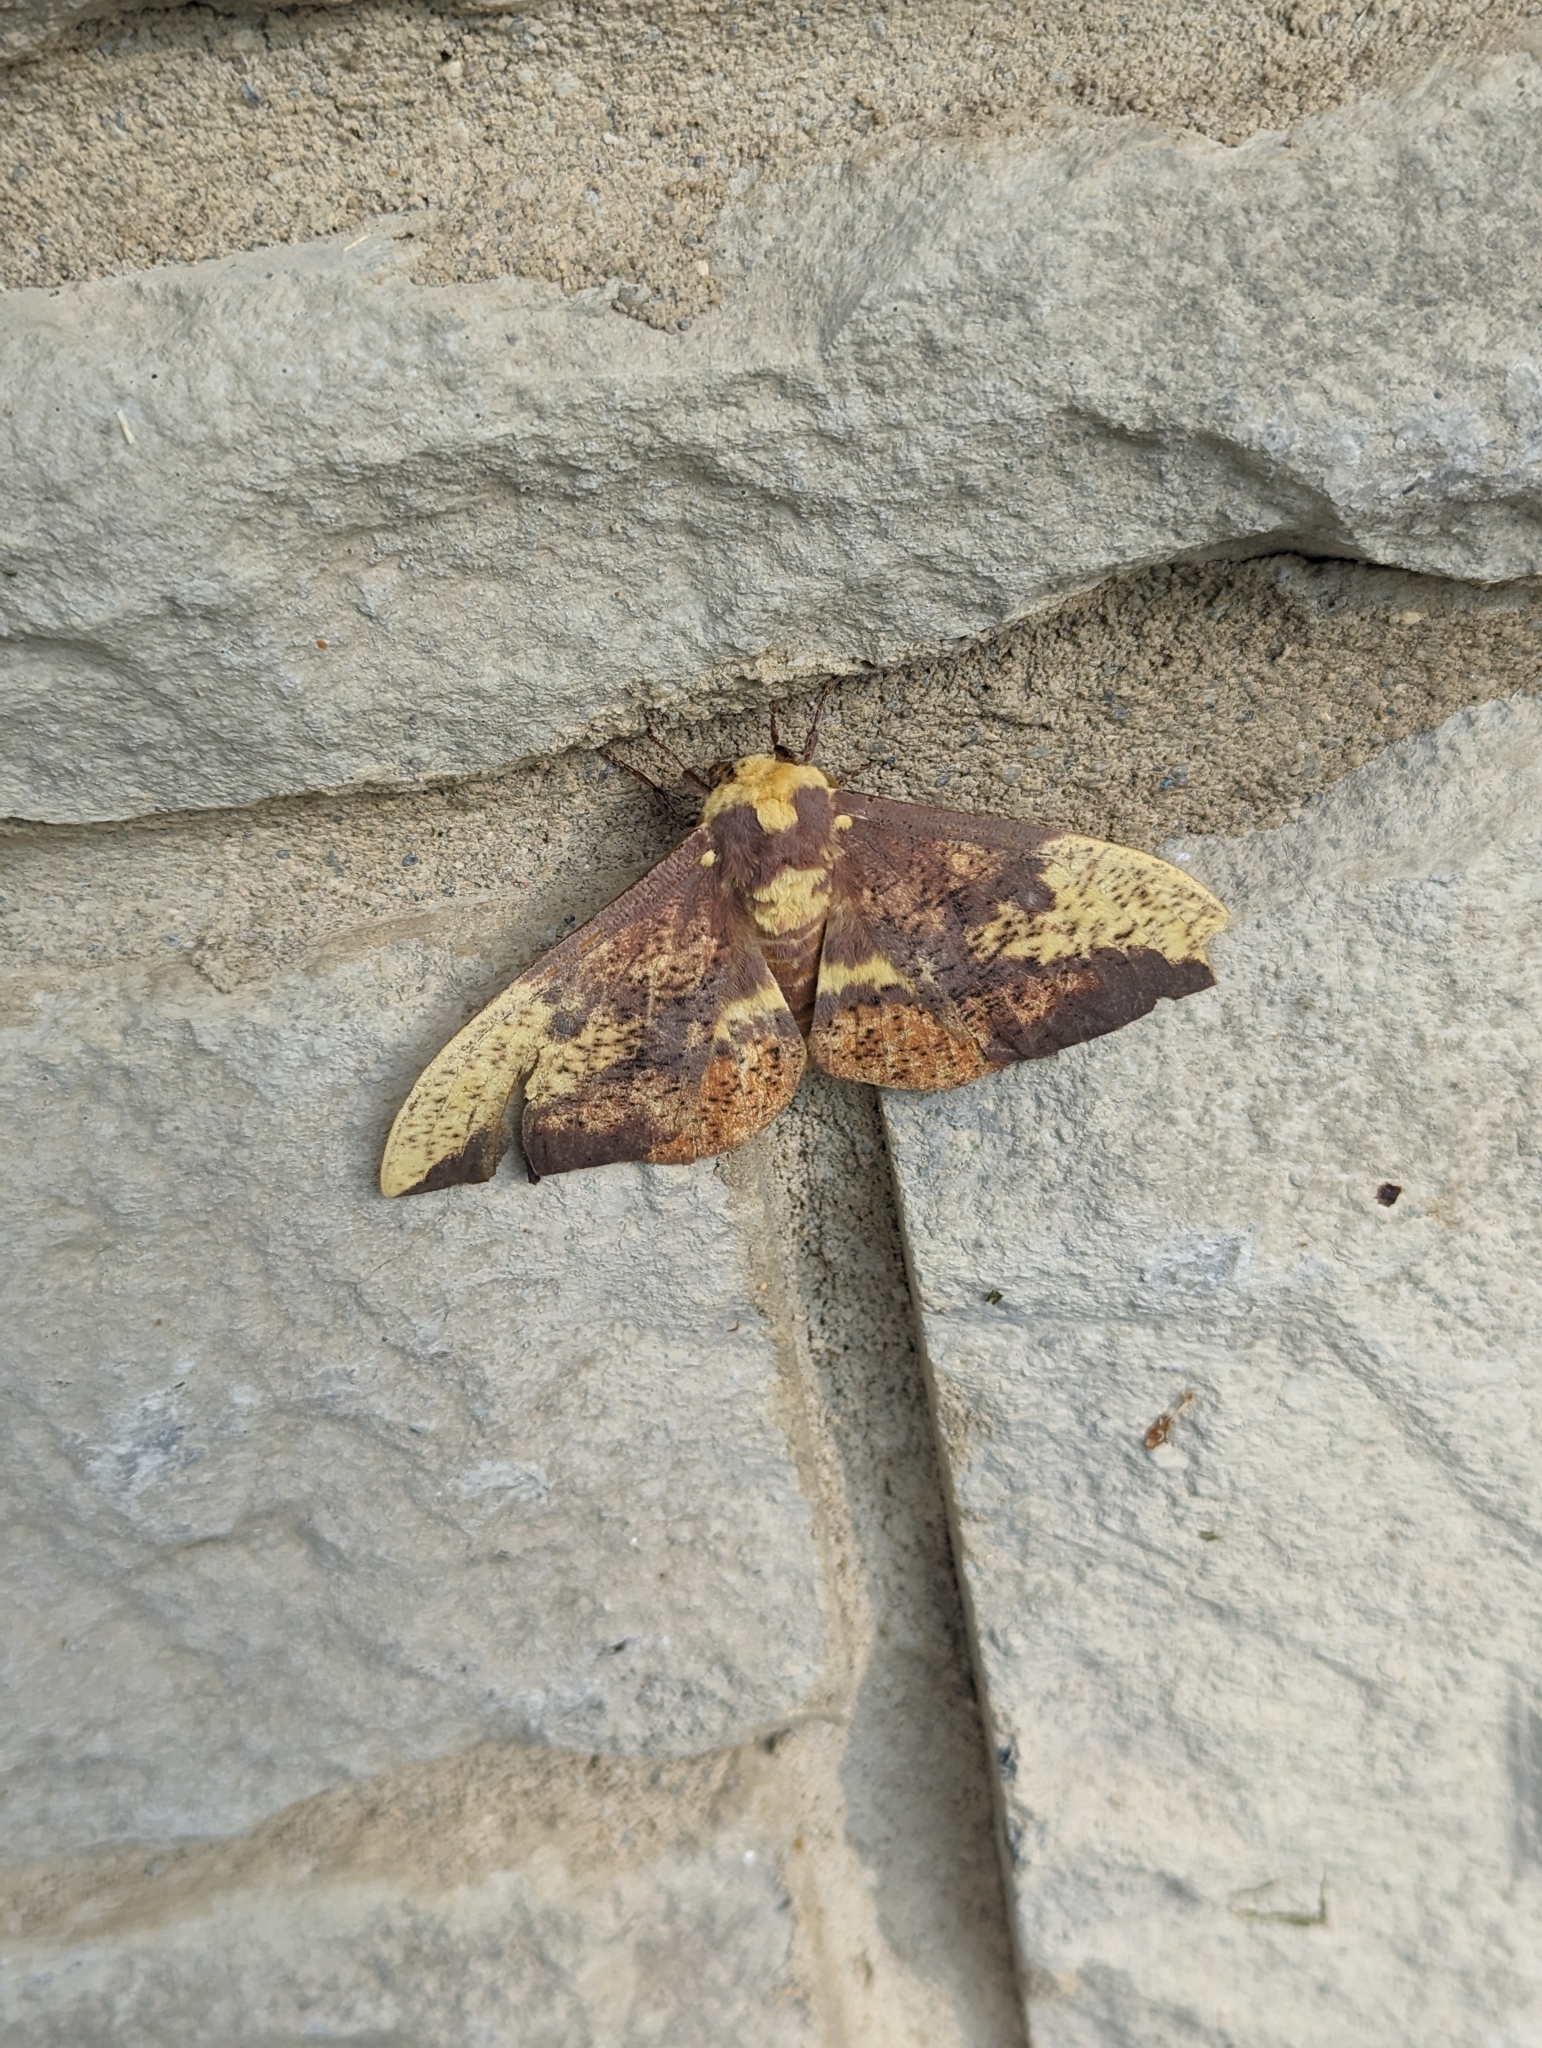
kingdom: Animalia
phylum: Arthropoda
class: Insecta
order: Lepidoptera
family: Saturniidae
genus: Eacles
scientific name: Eacles imperialis
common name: Imperial moth
